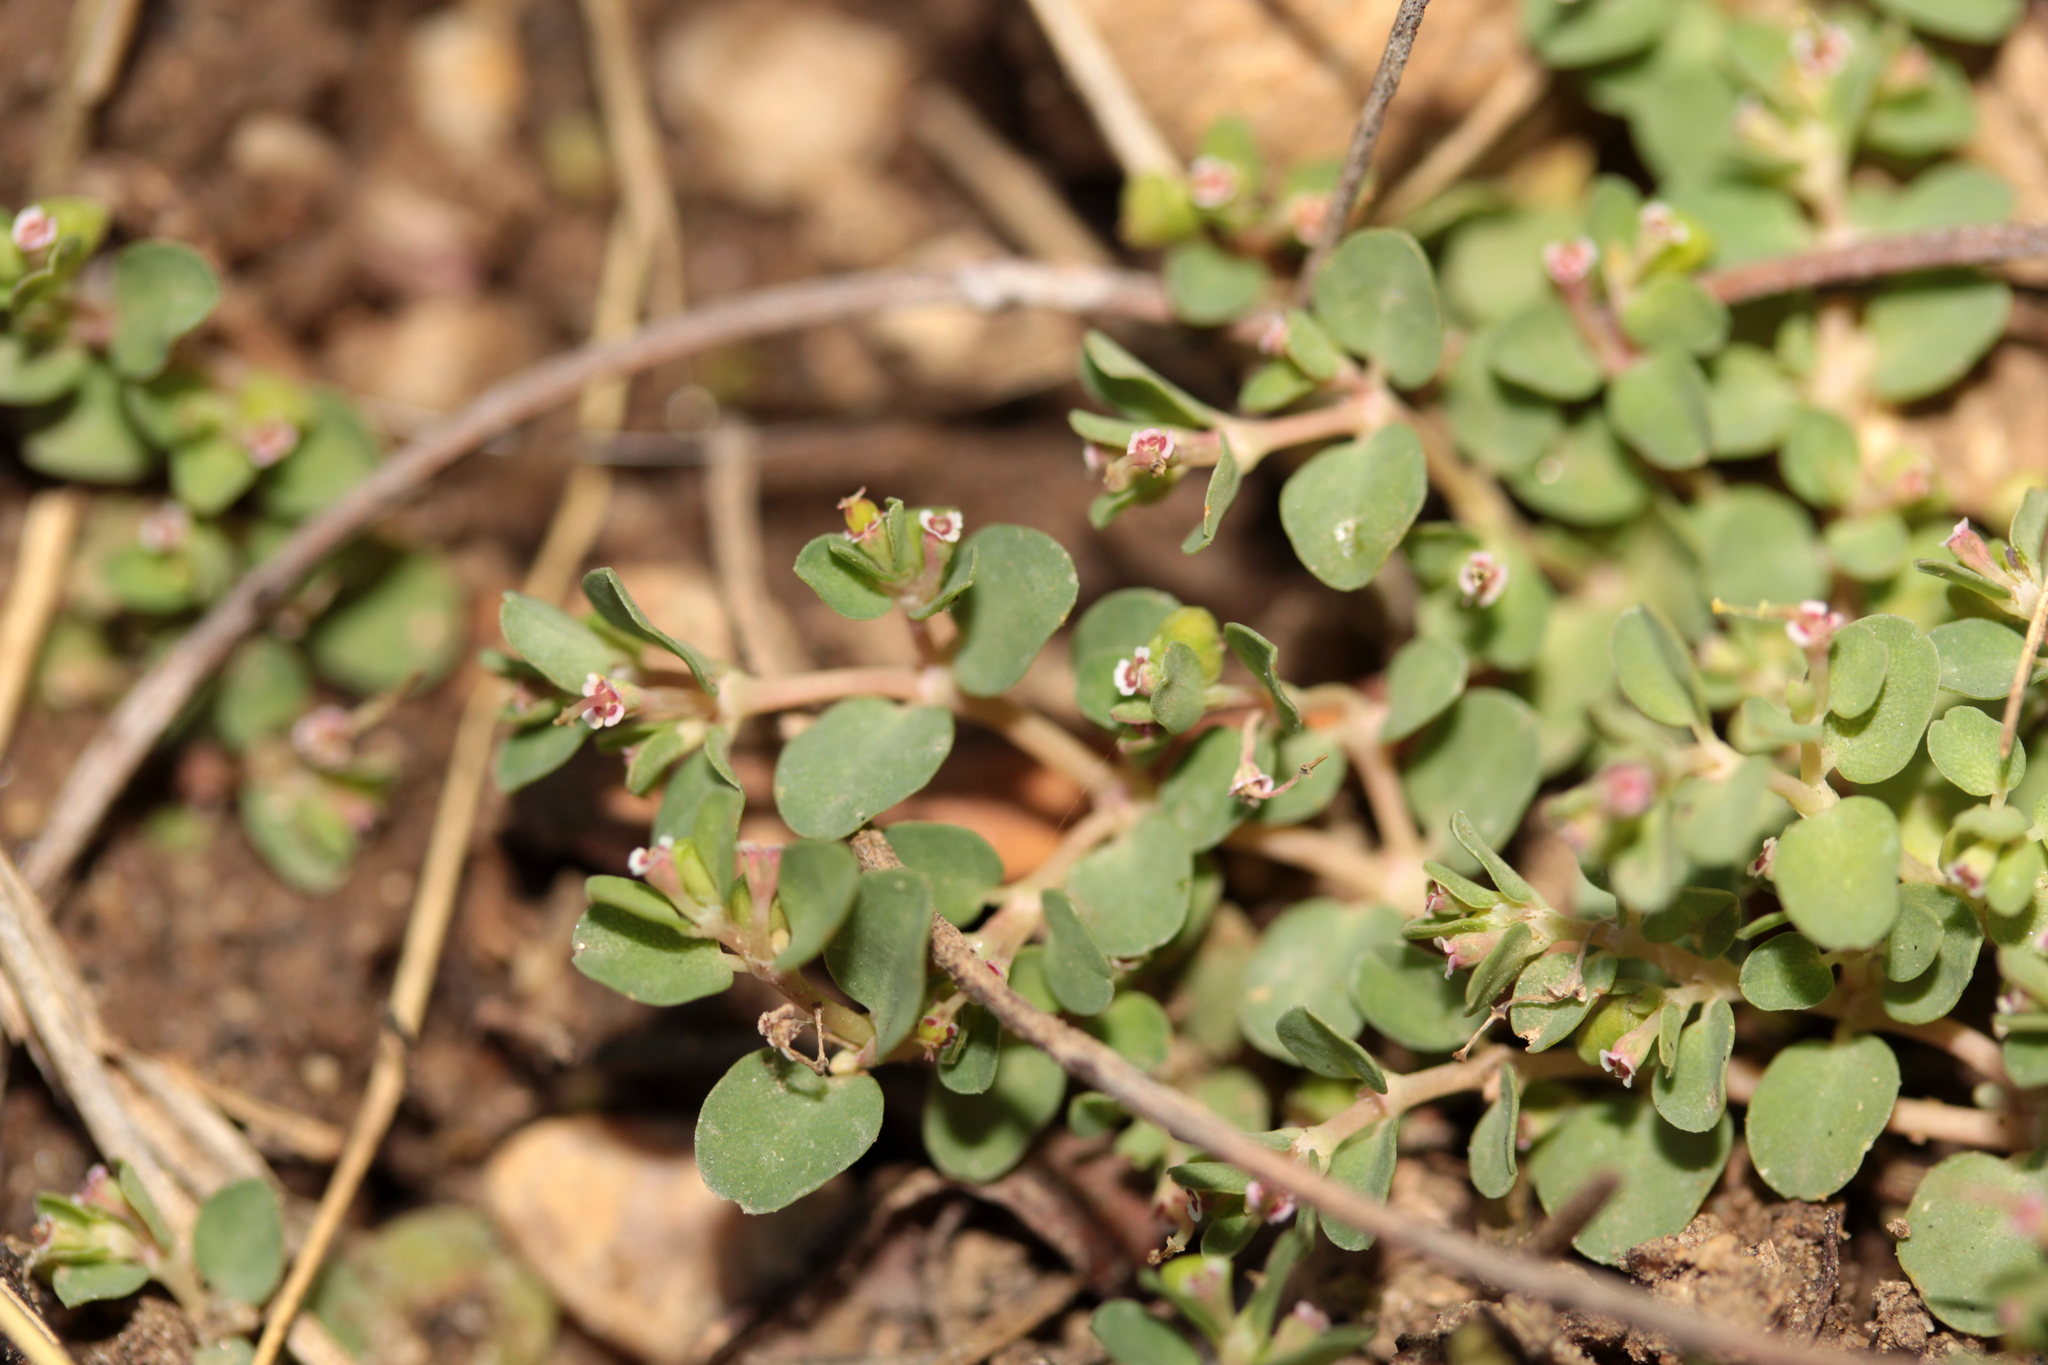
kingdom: Plantae
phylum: Tracheophyta
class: Magnoliopsida
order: Malpighiales
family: Euphorbiaceae
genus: Euphorbia
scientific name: Euphorbia serpens
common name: Matted sandmat
